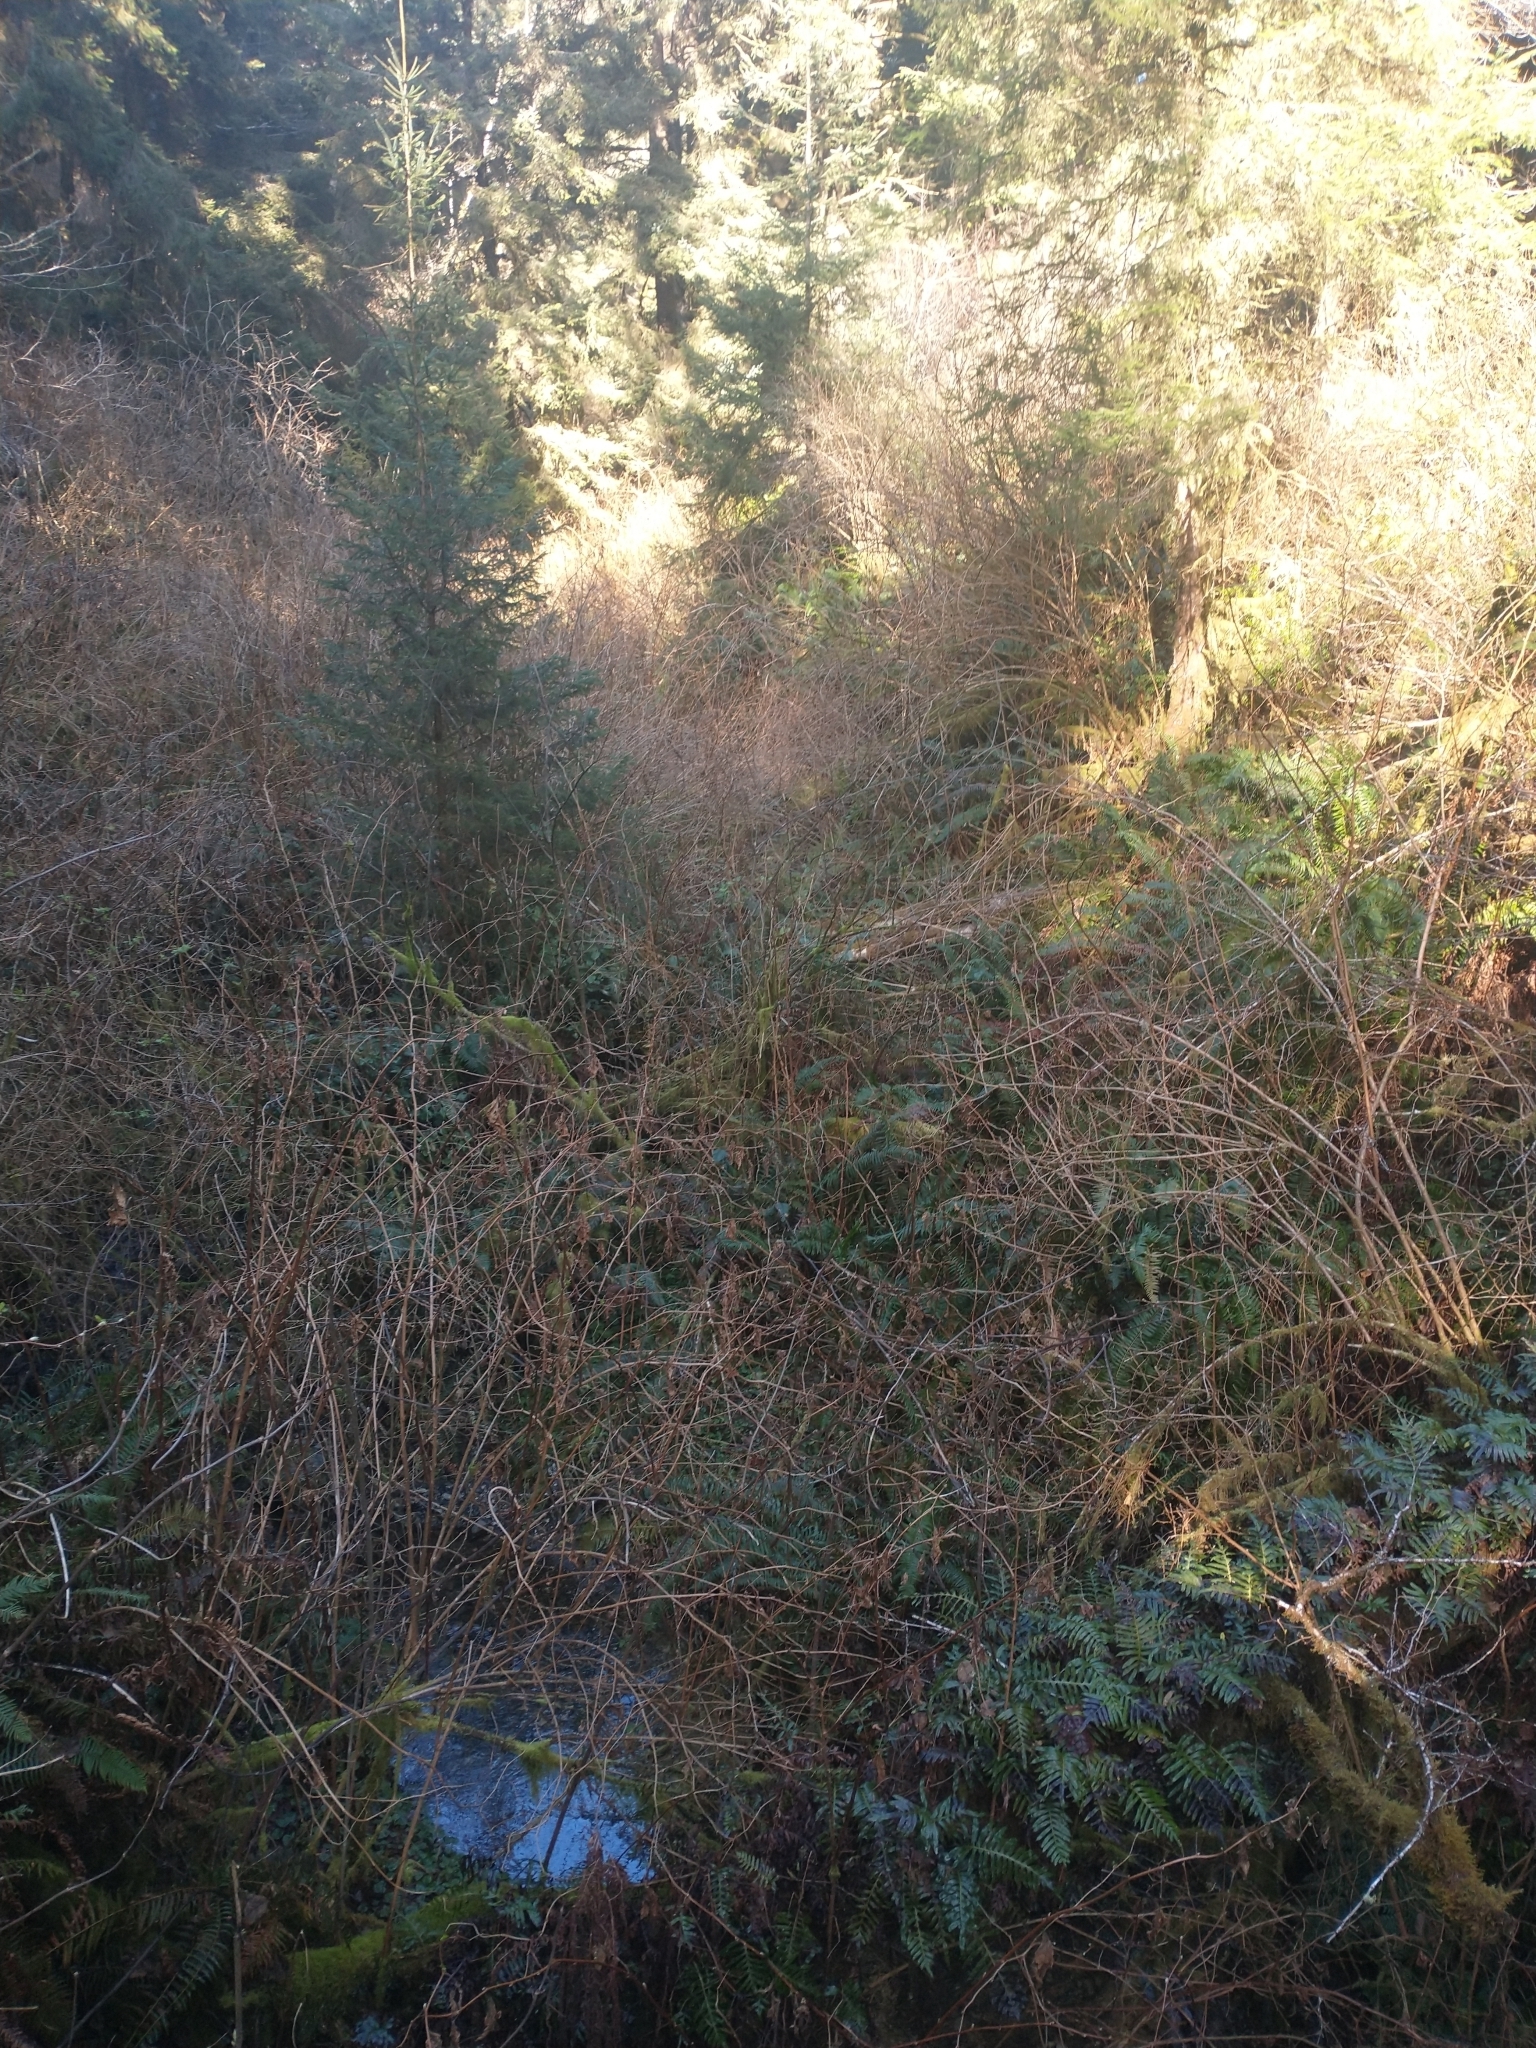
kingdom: Plantae
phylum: Tracheophyta
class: Magnoliopsida
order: Rosales
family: Rosaceae
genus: Rubus
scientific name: Rubus spectabilis
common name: Salmonberry
